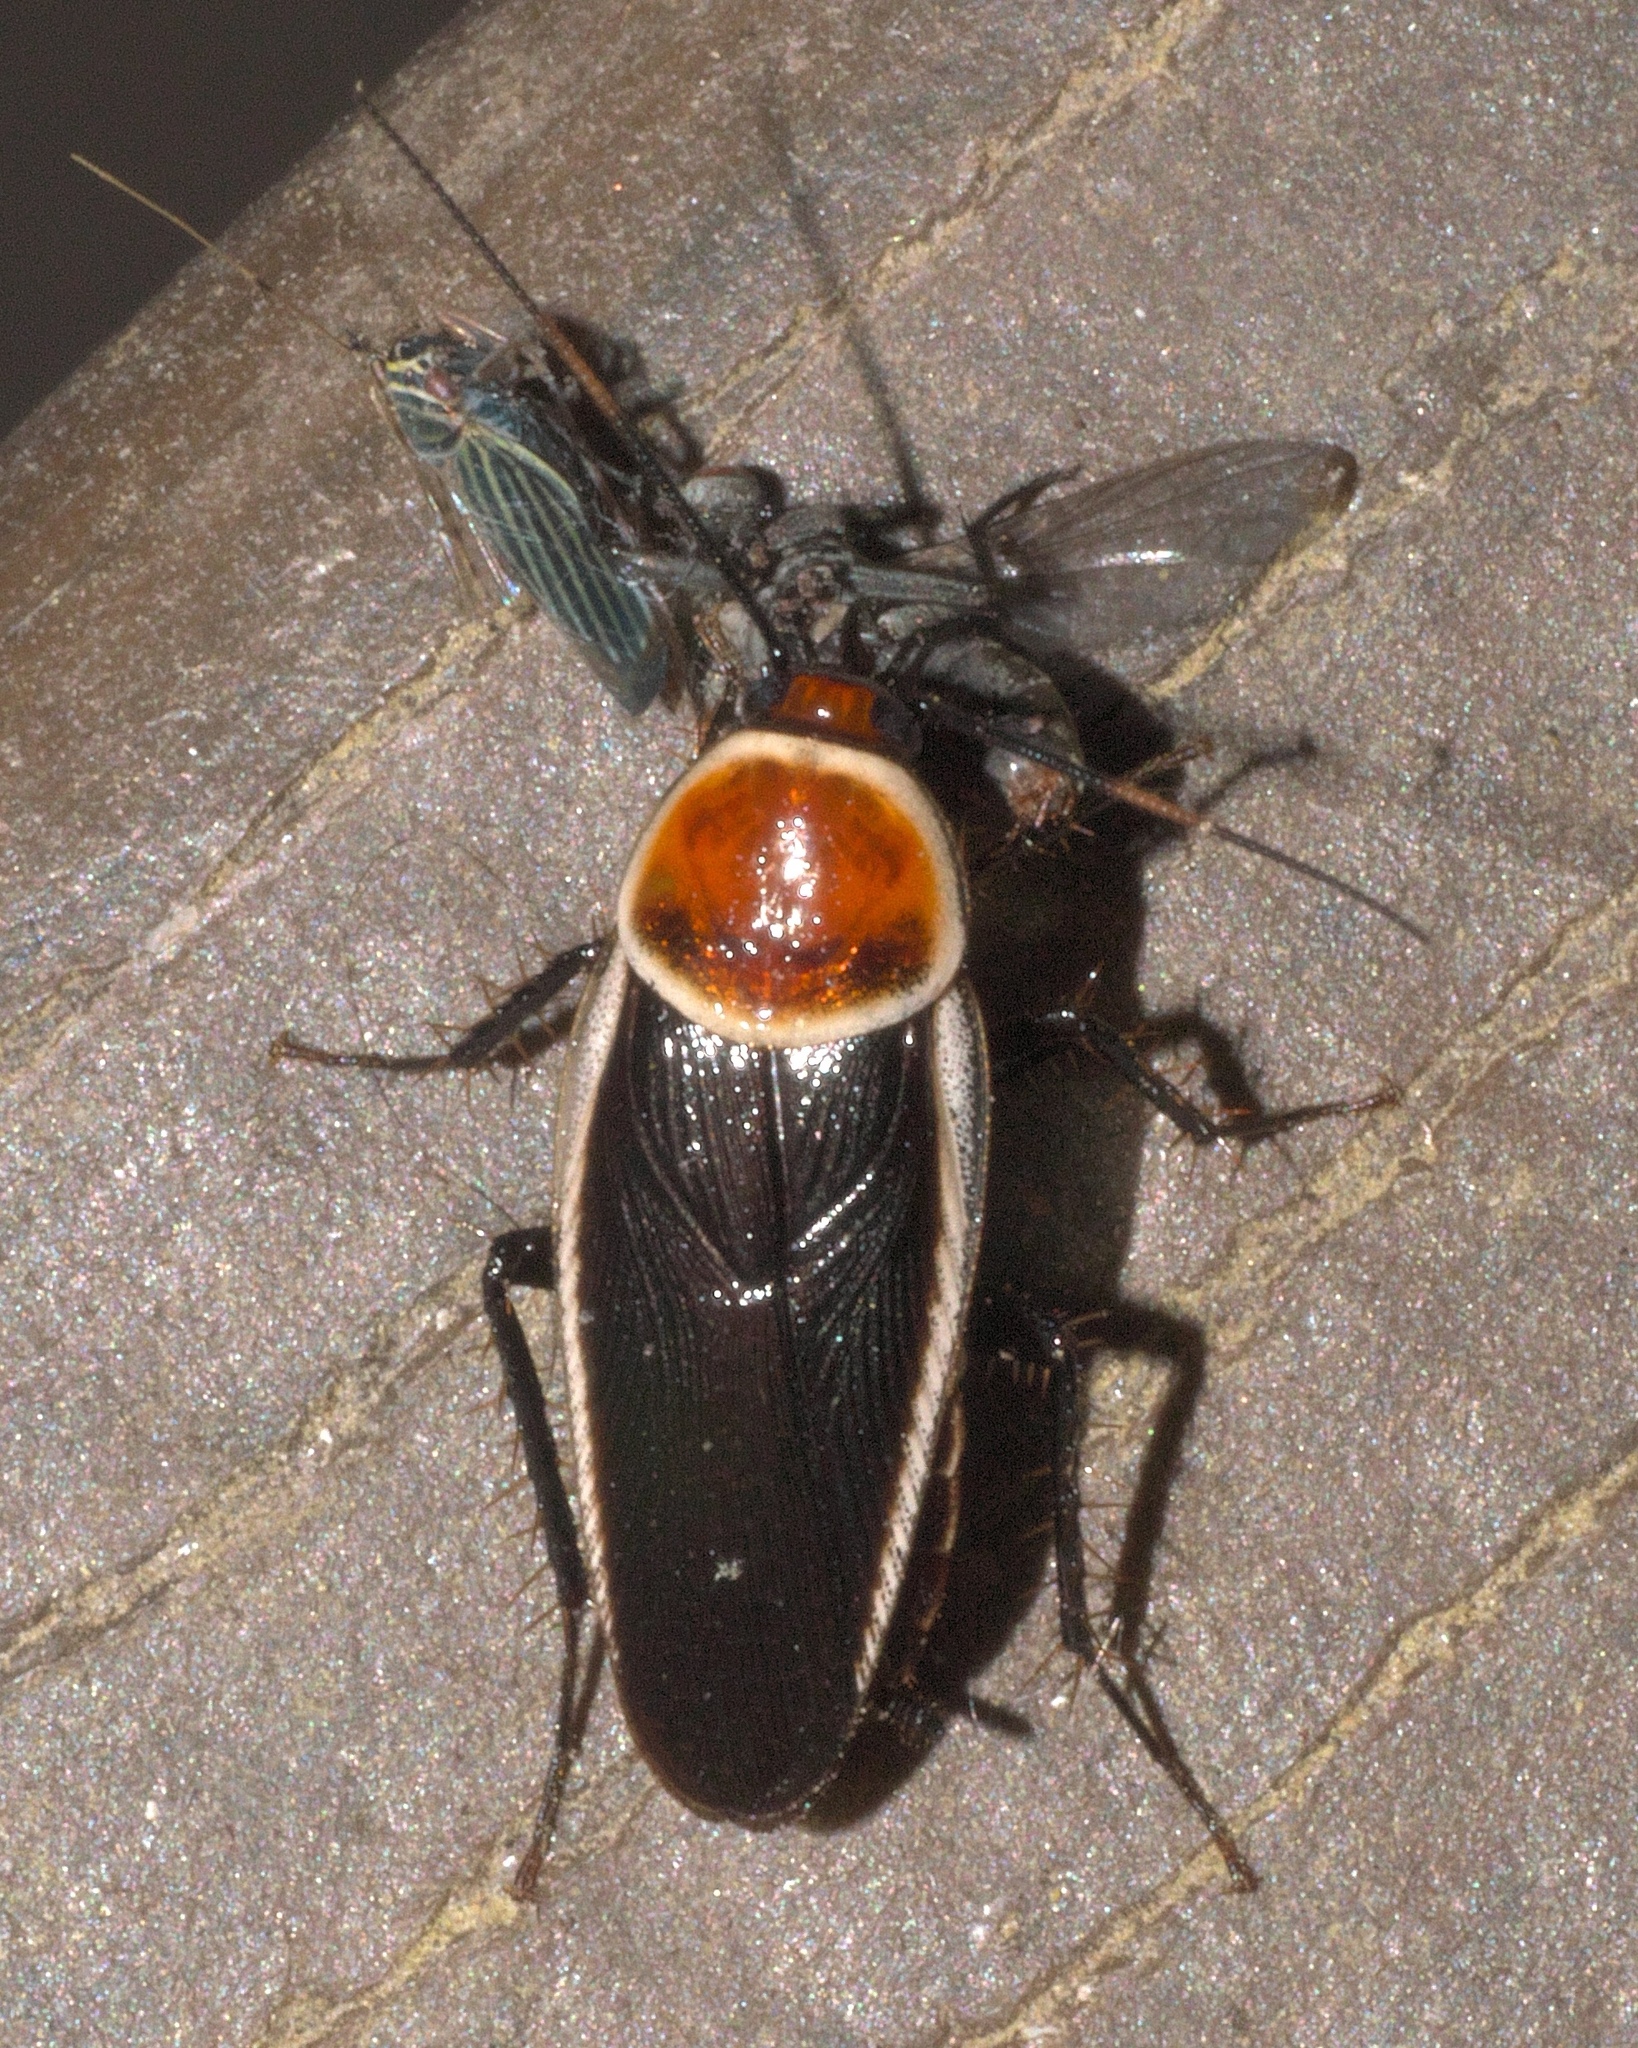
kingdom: Animalia
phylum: Arthropoda
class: Insecta
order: Blattodea
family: Ectobiidae
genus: Pseudomops
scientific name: Pseudomops septentrionalis
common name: Pale-bordered field cockroach
